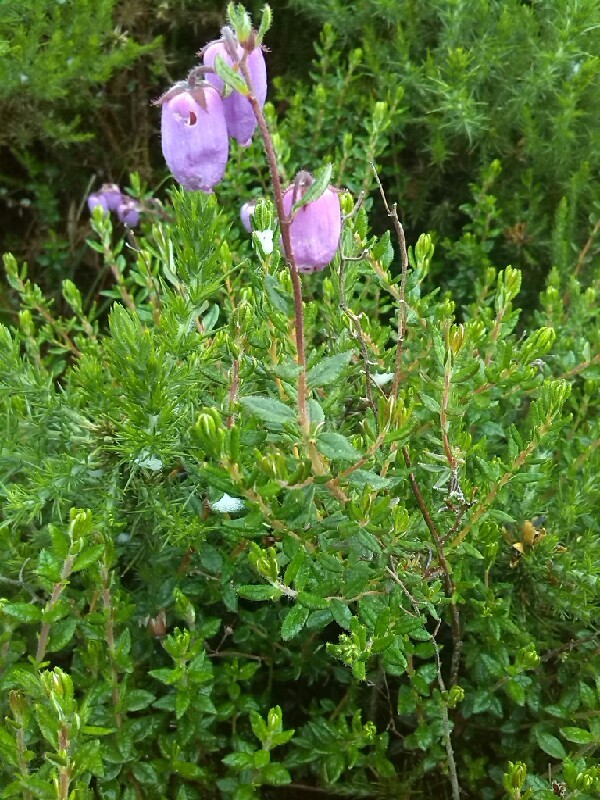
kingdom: Plantae
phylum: Tracheophyta
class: Magnoliopsida
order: Ericales
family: Ericaceae
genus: Daboecia
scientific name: Daboecia cantabrica
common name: St. dabeoc's-heath
